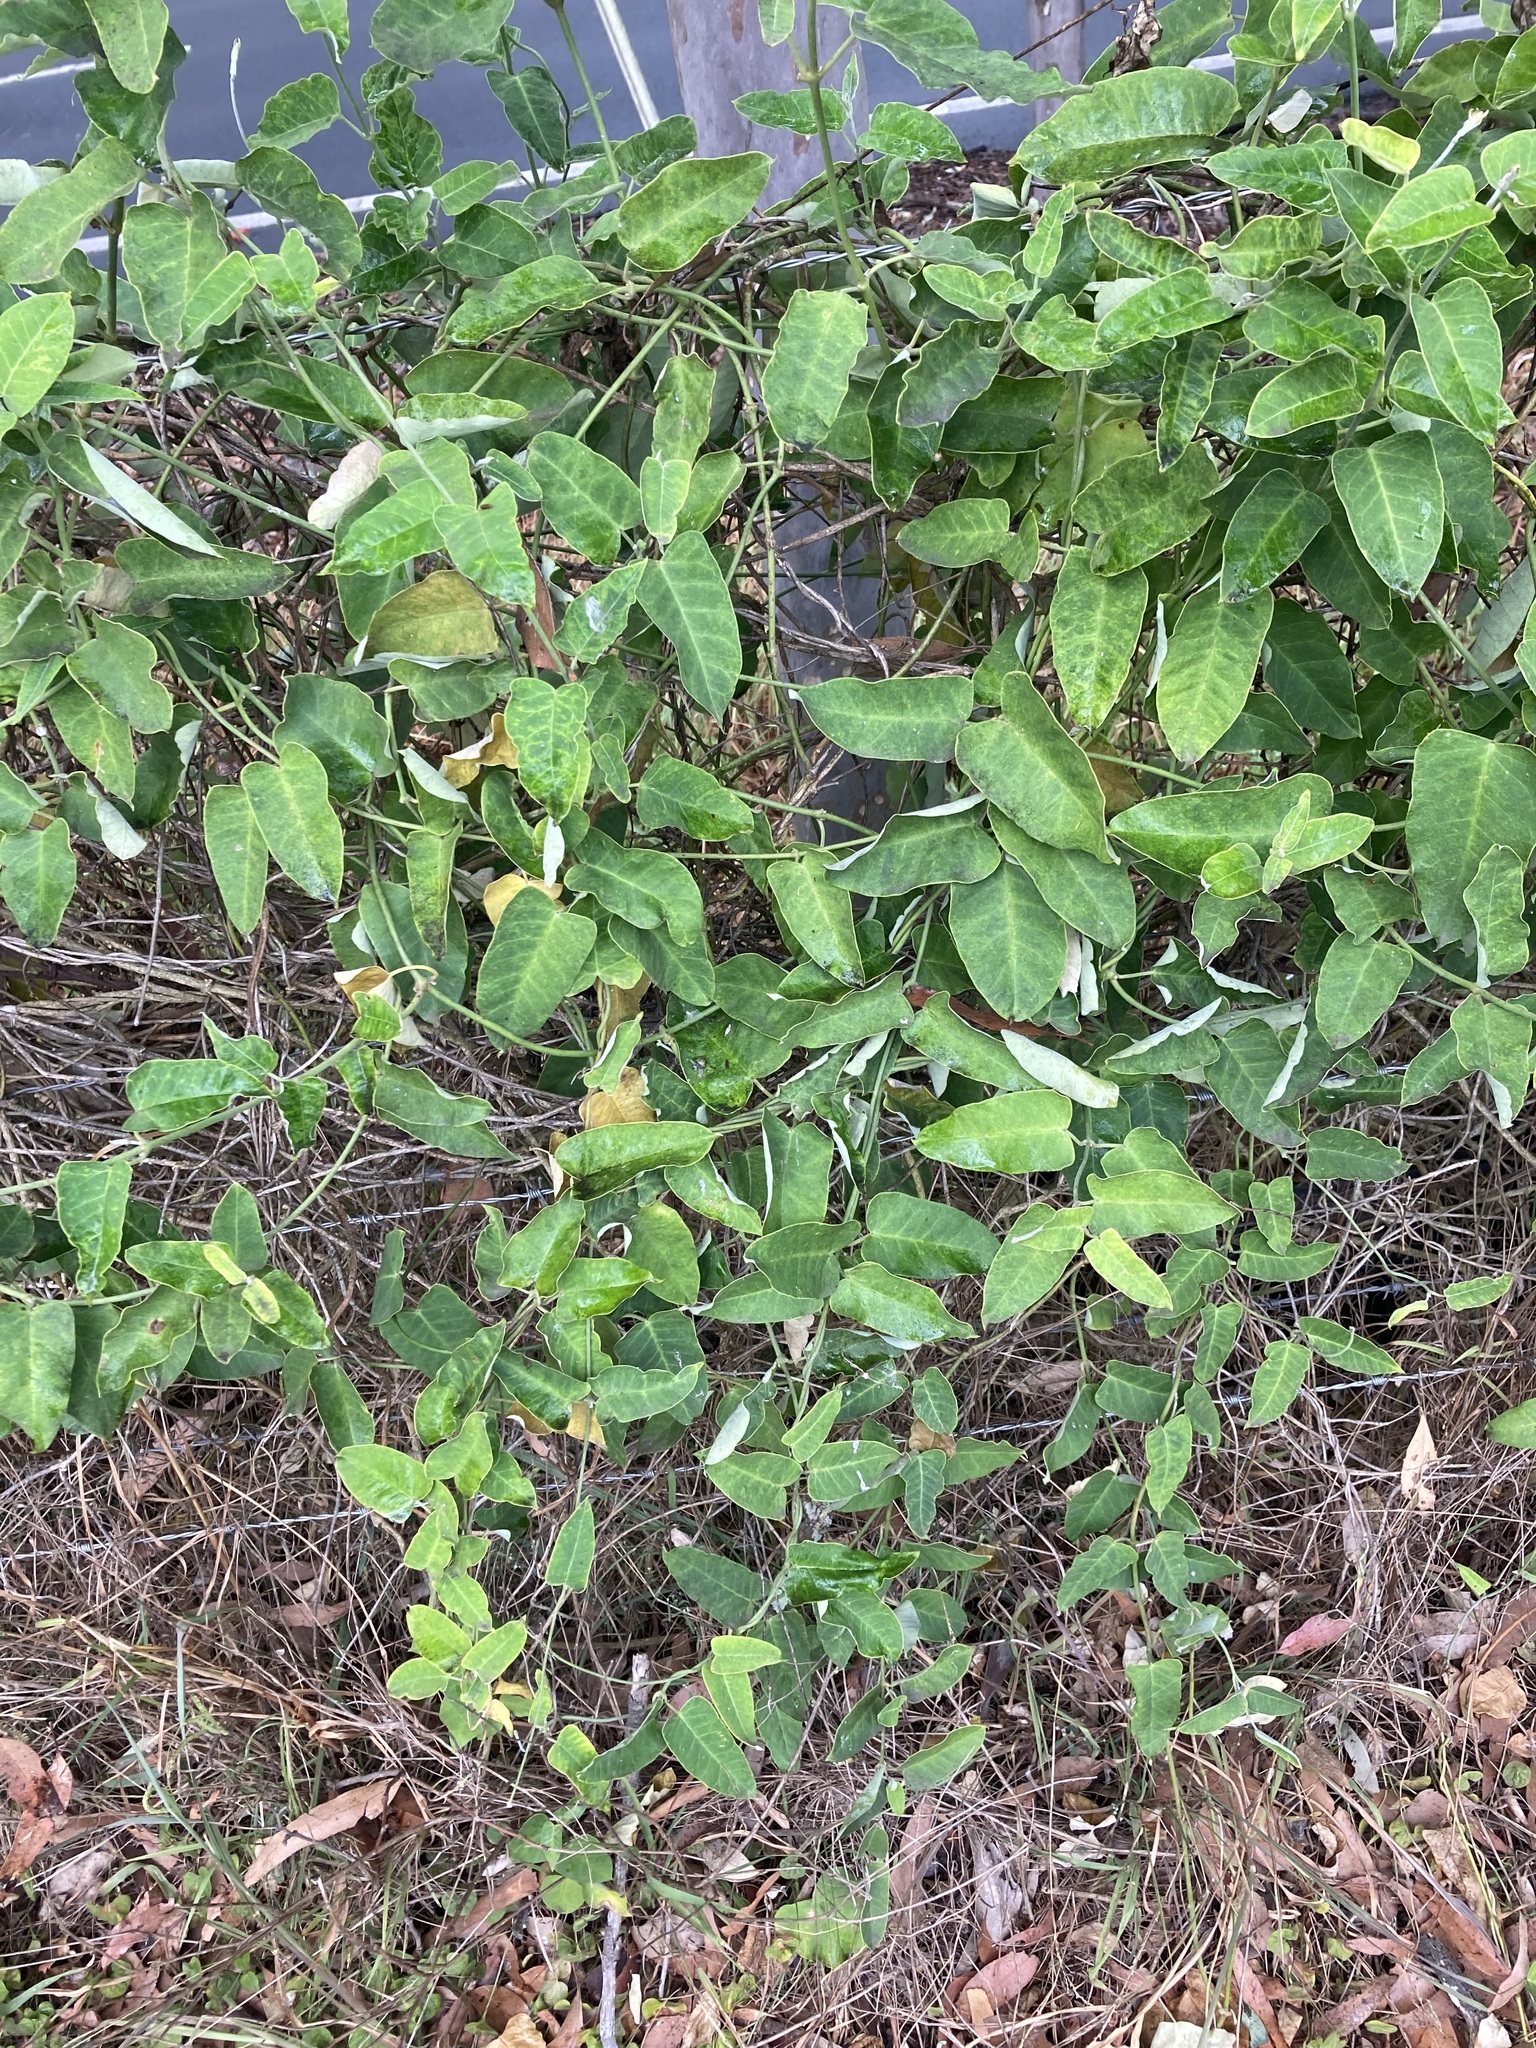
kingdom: Plantae
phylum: Tracheophyta
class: Magnoliopsida
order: Gentianales
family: Apocynaceae
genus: Araujia
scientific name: Araujia sericifera
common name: White bladderflower
